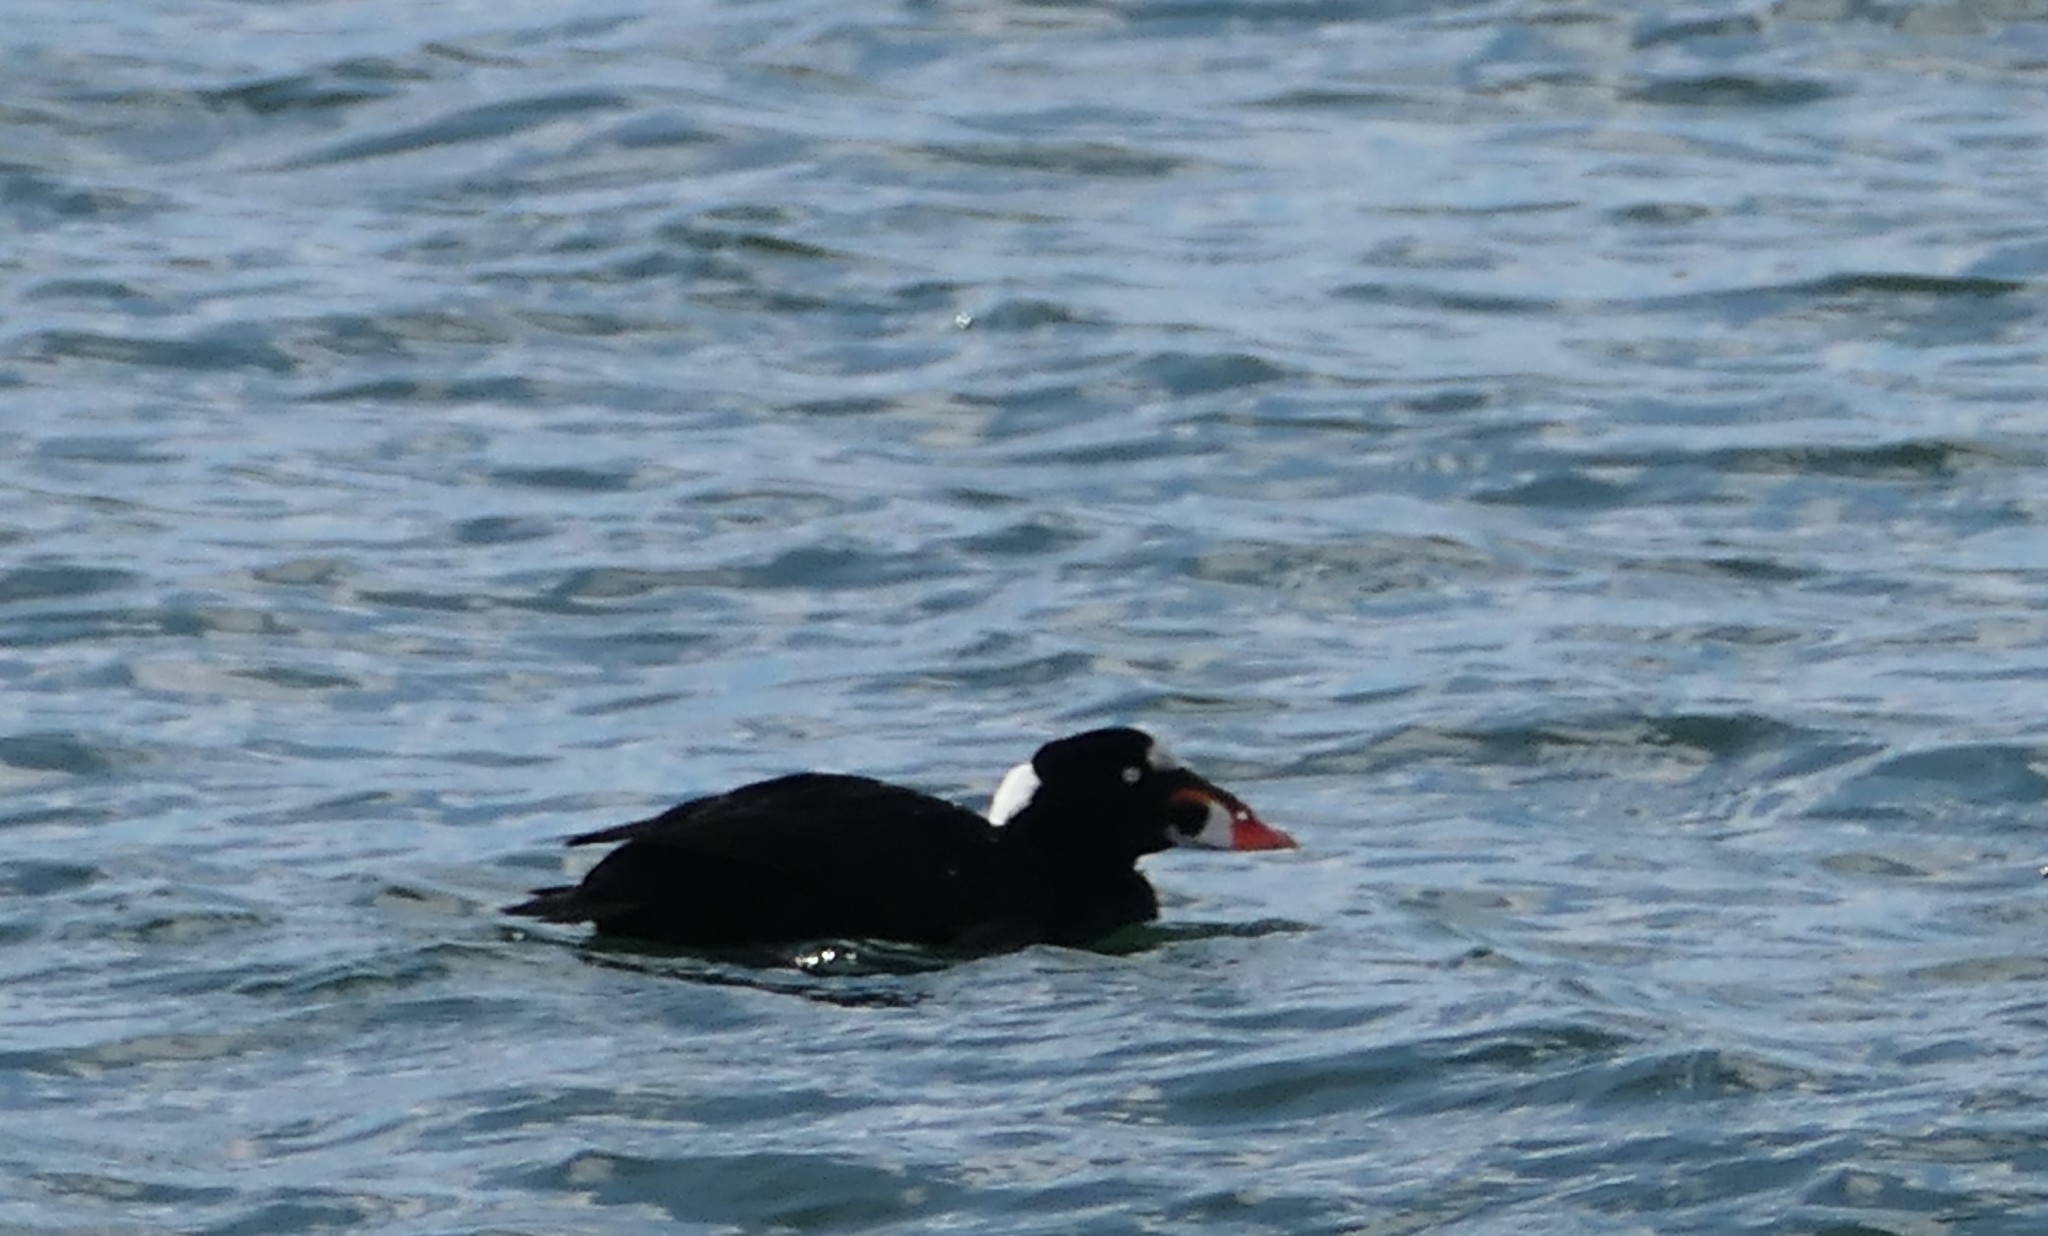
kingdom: Animalia
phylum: Chordata
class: Aves
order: Anseriformes
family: Anatidae
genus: Melanitta
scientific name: Melanitta perspicillata
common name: Surf scoter
